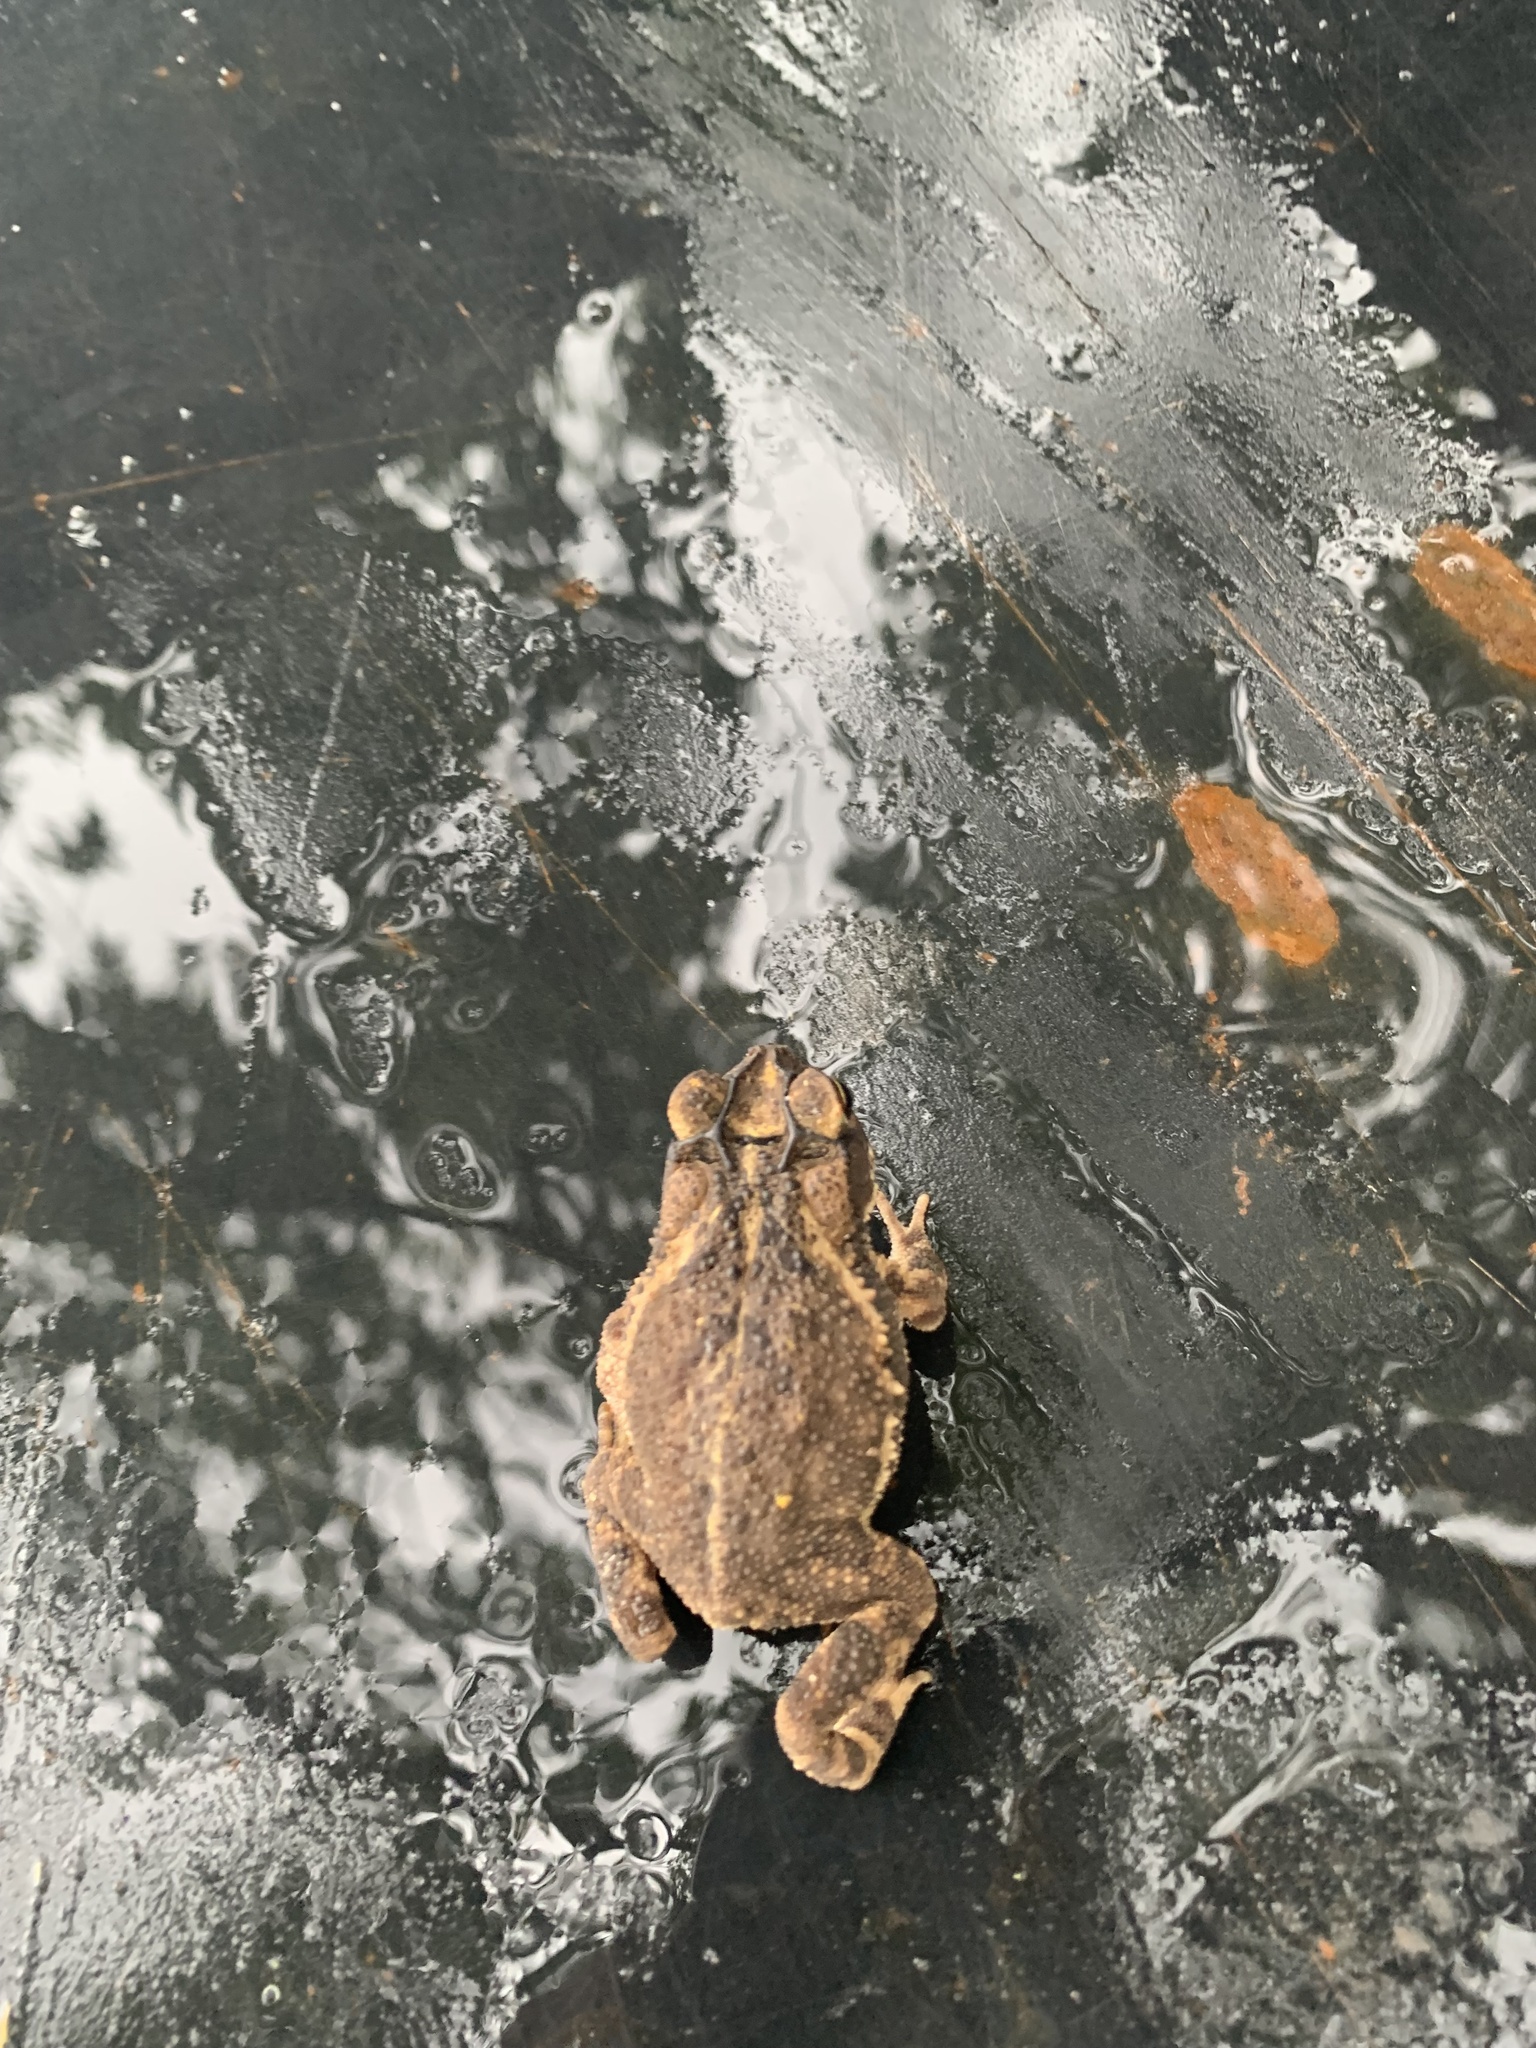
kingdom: Animalia
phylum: Chordata
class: Amphibia
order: Anura
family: Bufonidae
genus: Incilius
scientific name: Incilius nebulifer
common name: Gulf coast toad
